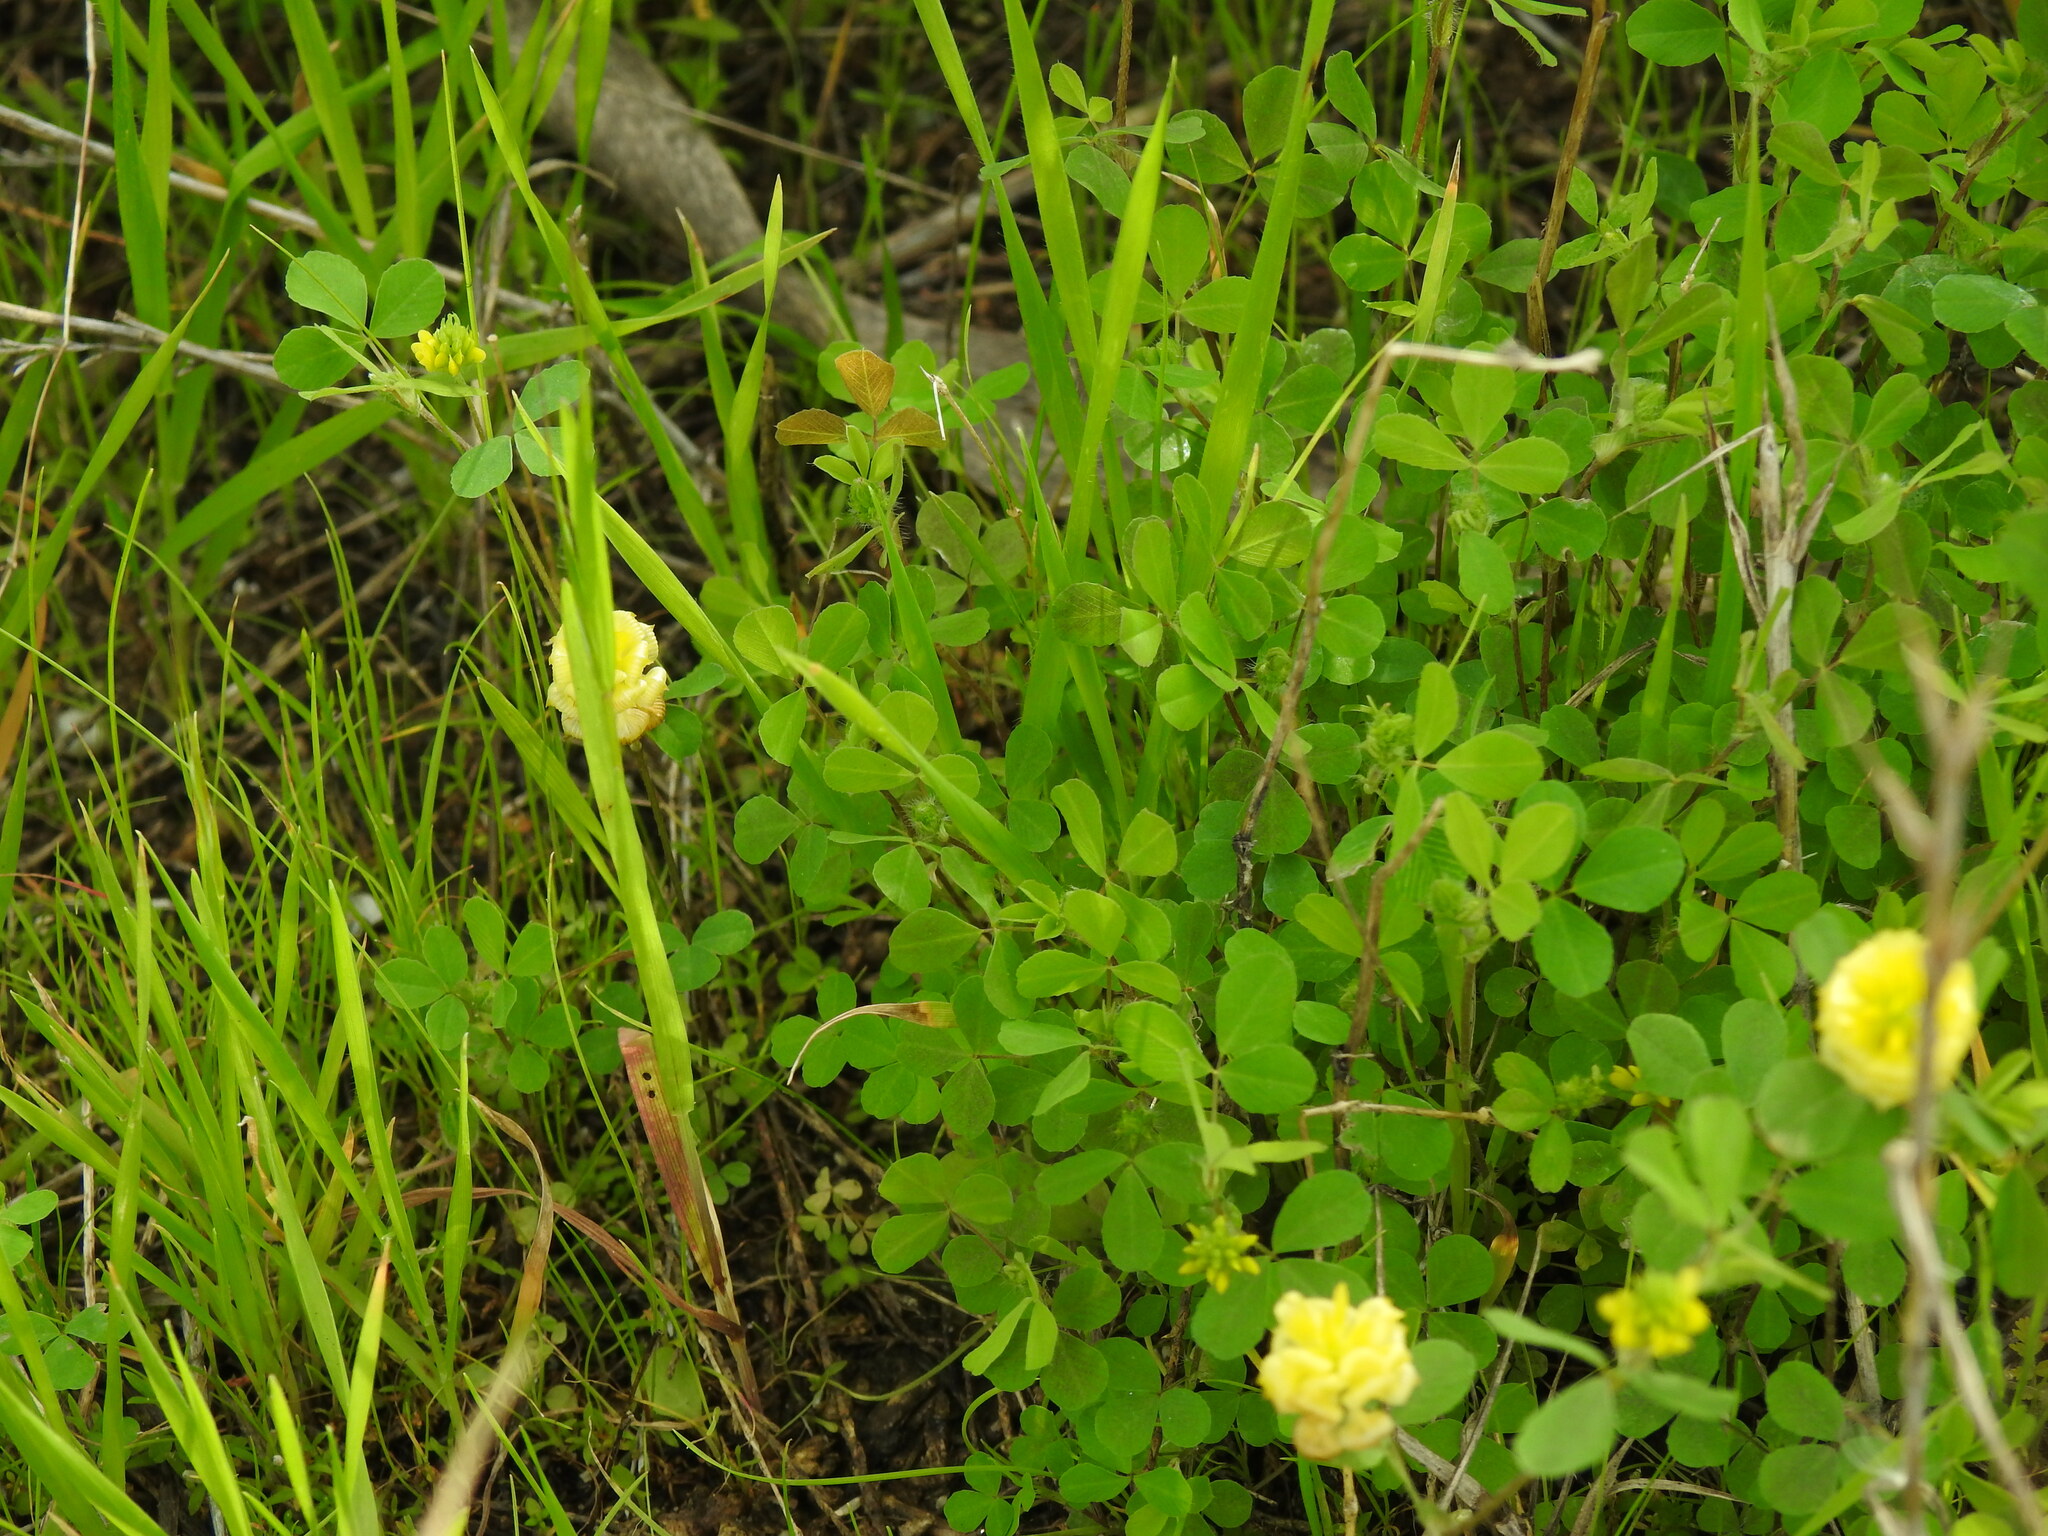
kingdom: Plantae
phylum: Tracheophyta
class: Magnoliopsida
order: Fabales
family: Fabaceae
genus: Trifolium
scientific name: Trifolium campestre
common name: Field clover
